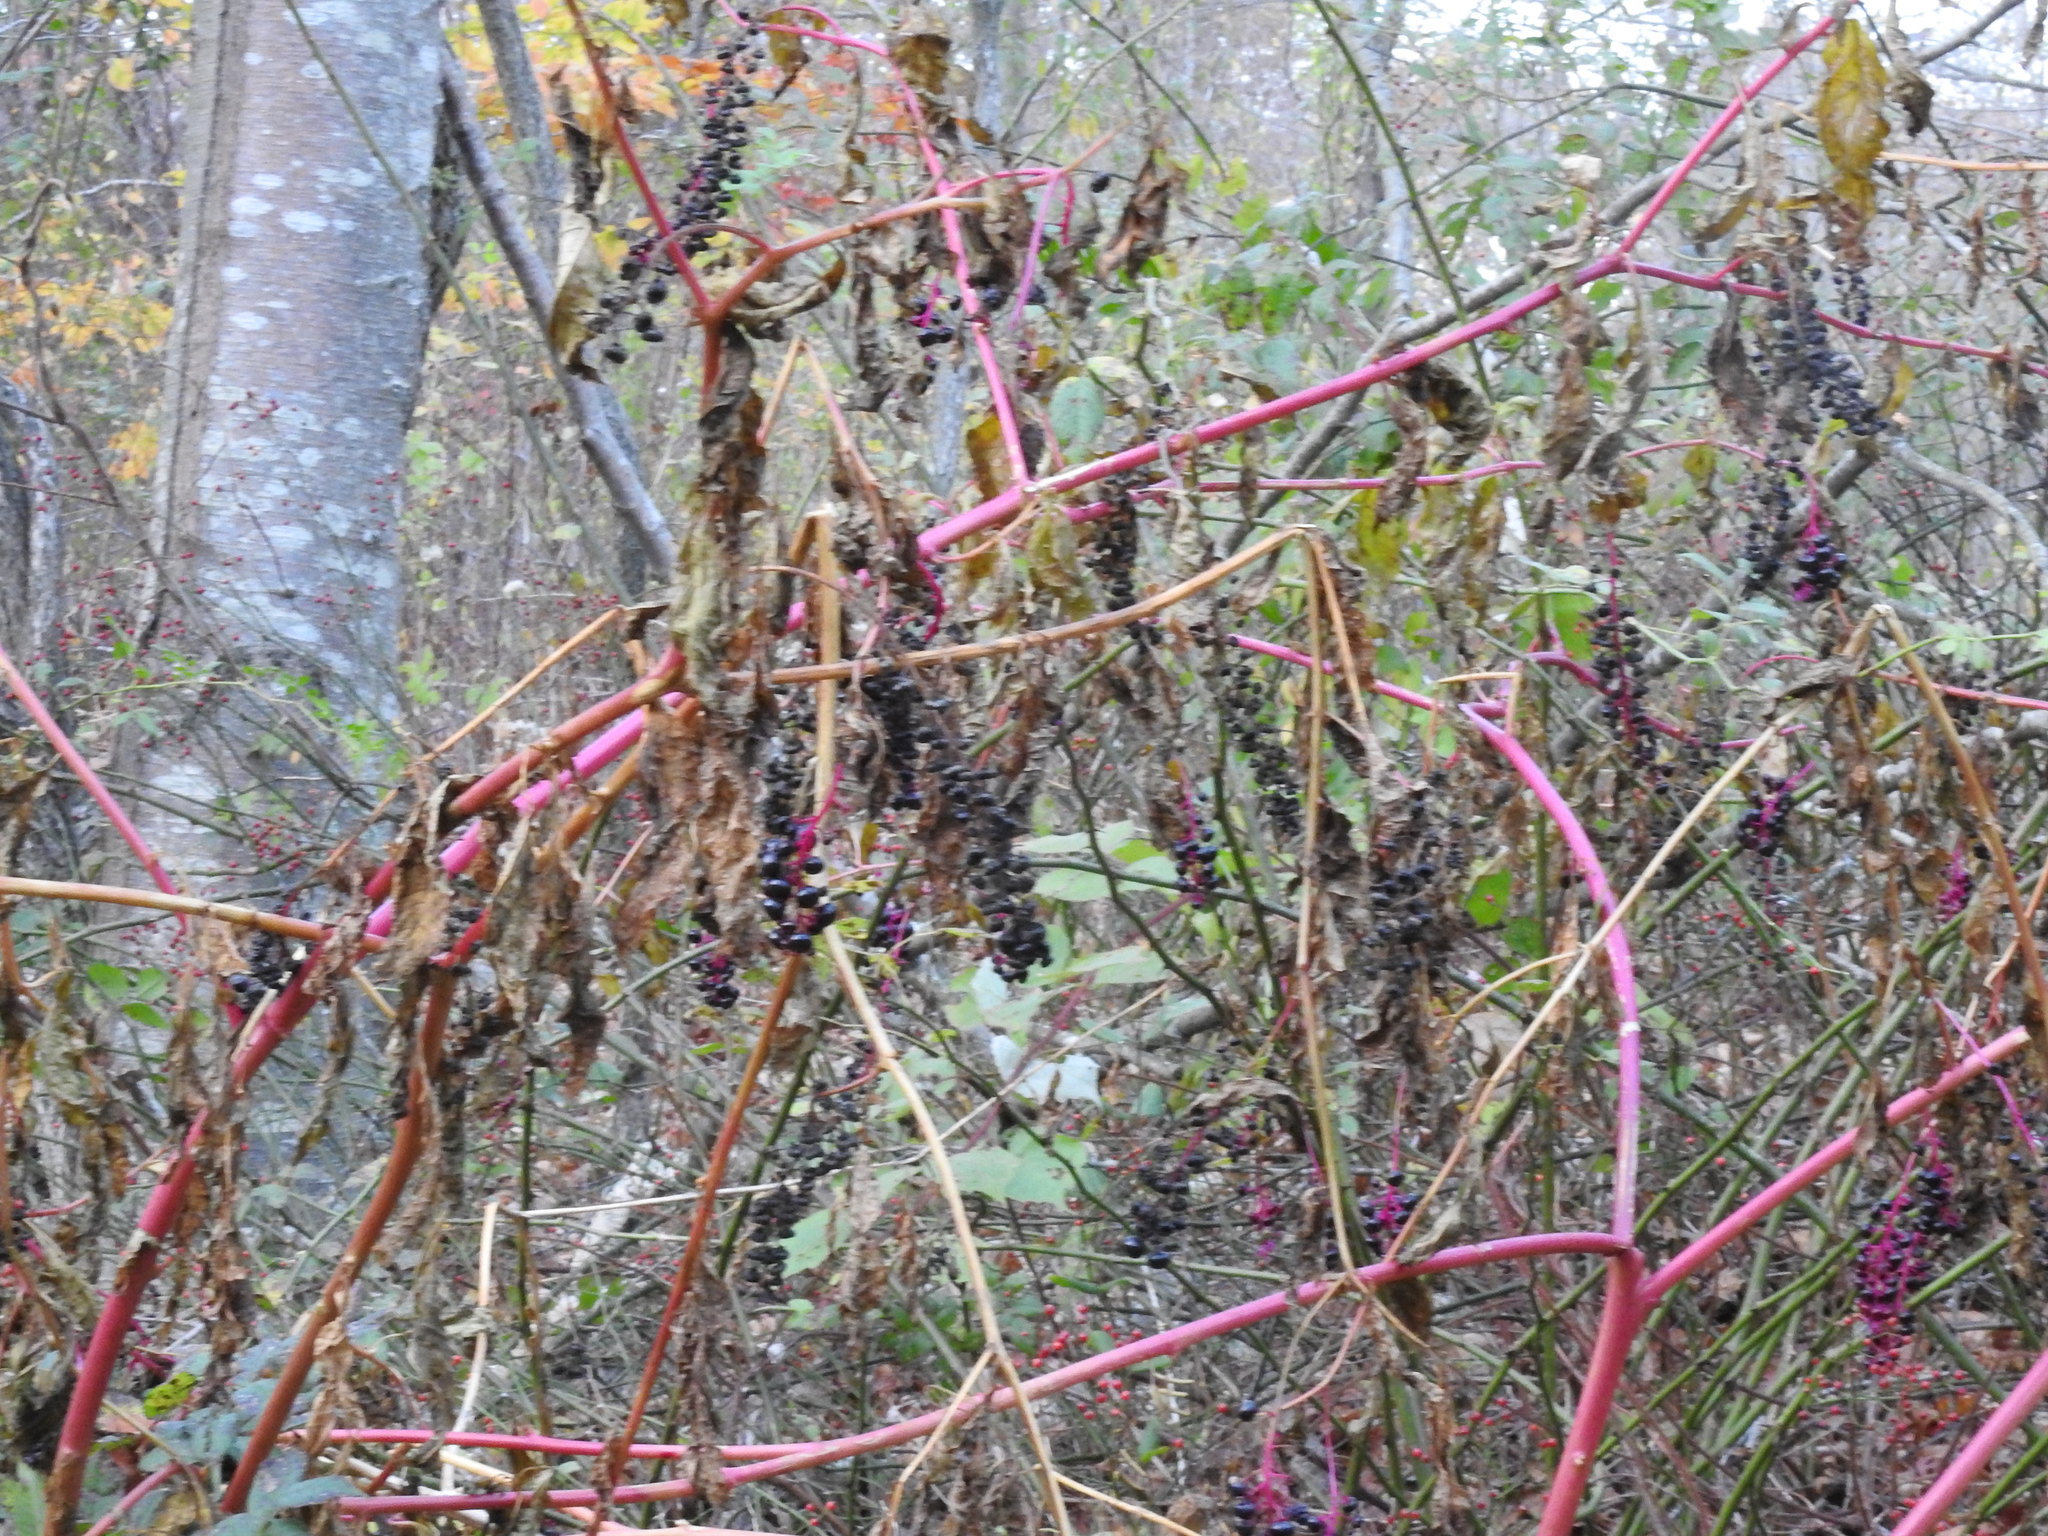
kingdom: Plantae
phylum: Tracheophyta
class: Magnoliopsida
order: Caryophyllales
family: Phytolaccaceae
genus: Phytolacca
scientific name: Phytolacca americana
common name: American pokeweed
